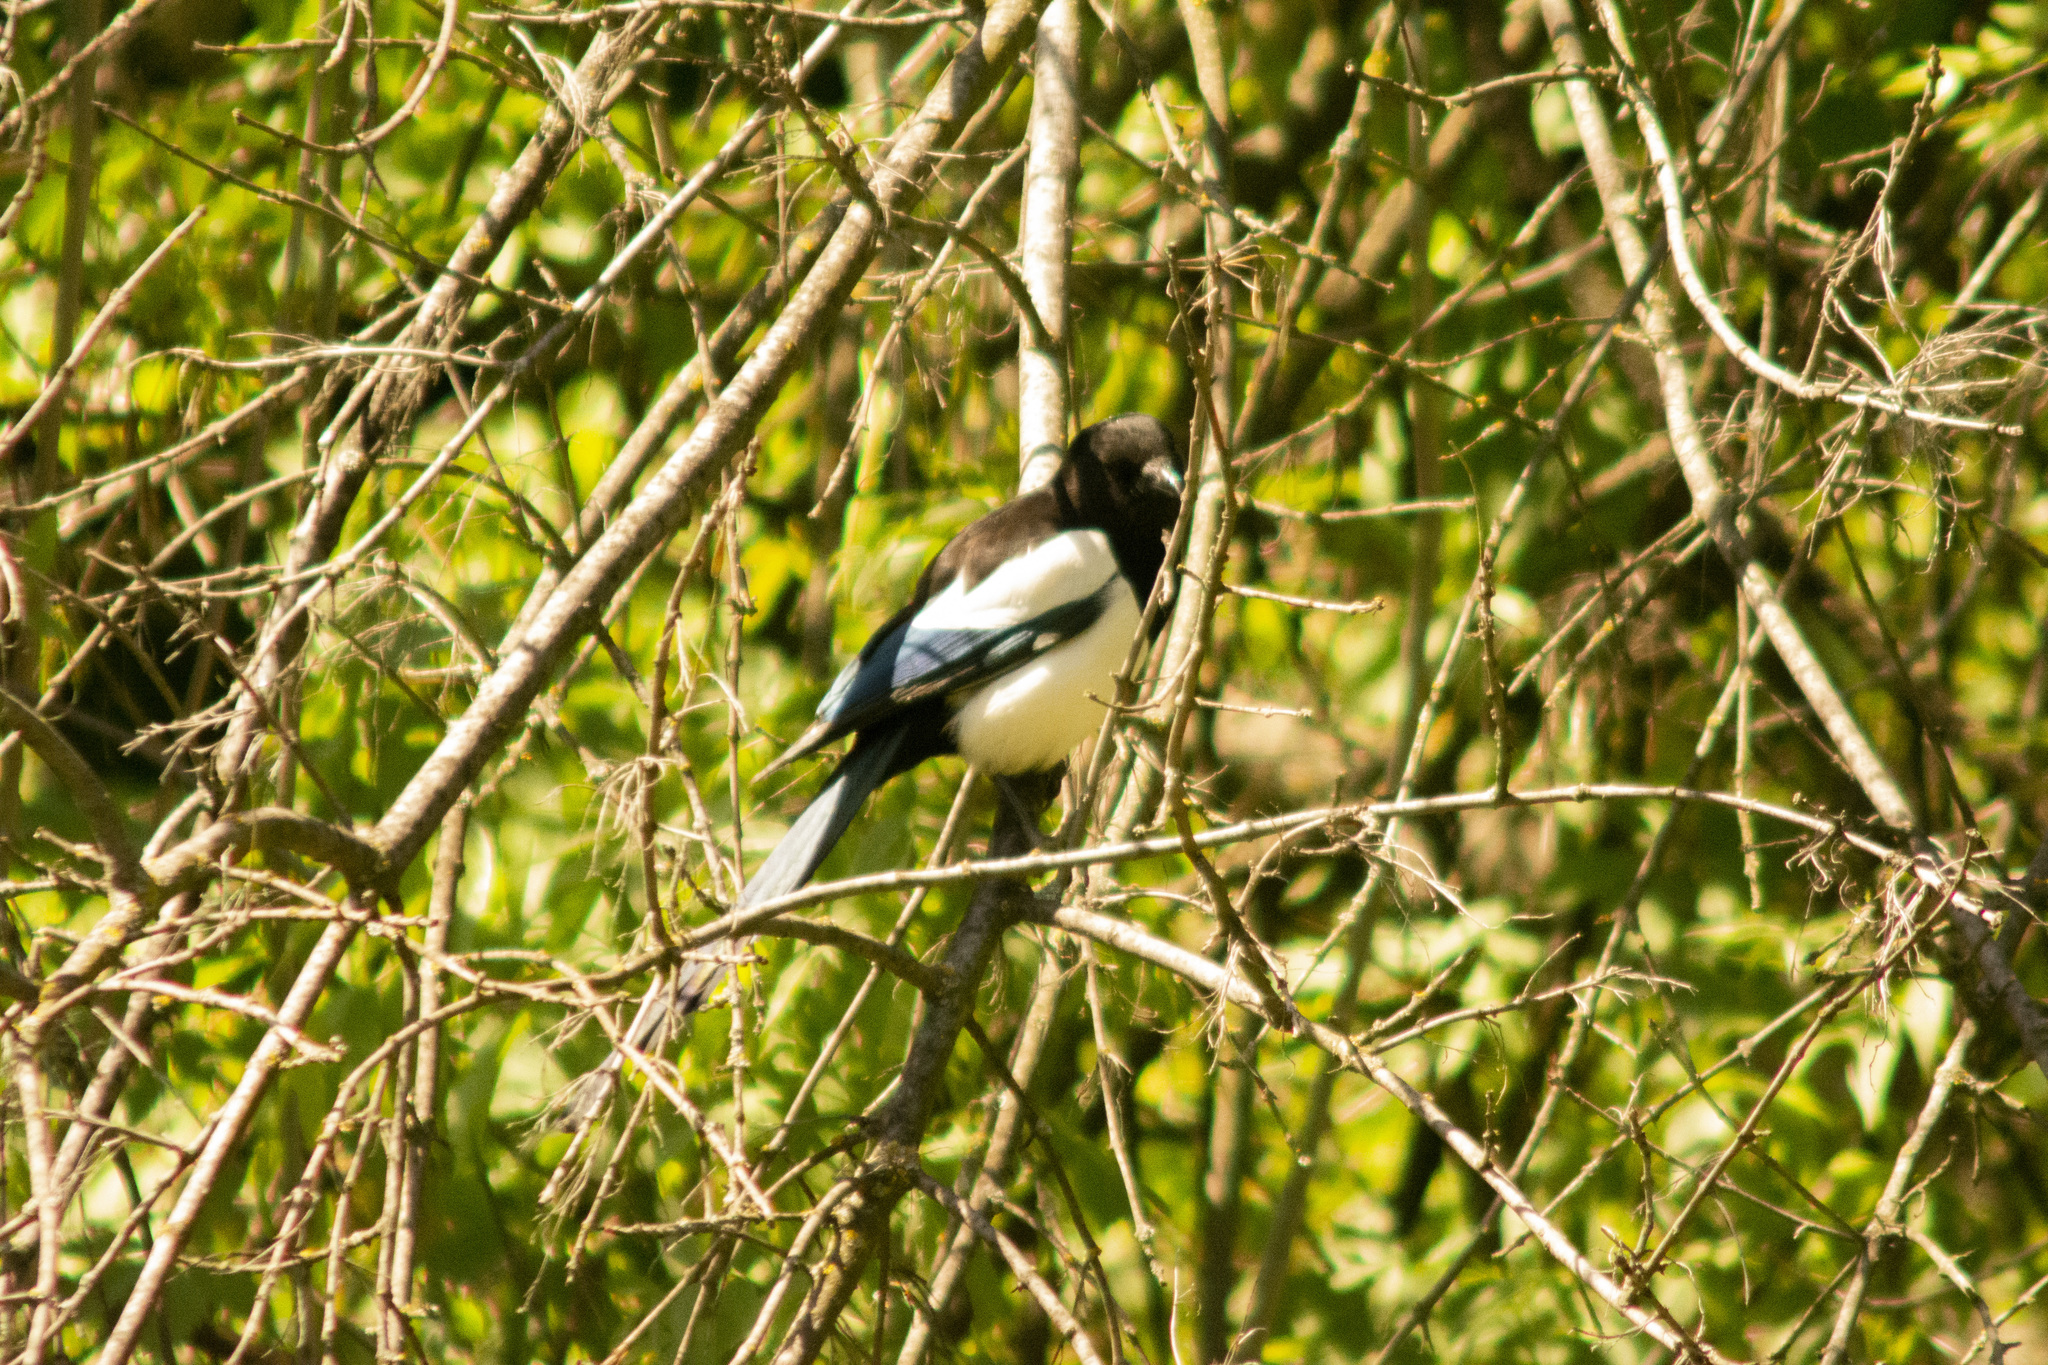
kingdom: Animalia
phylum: Chordata
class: Aves
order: Passeriformes
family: Corvidae
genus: Pica
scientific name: Pica pica
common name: Eurasian magpie
